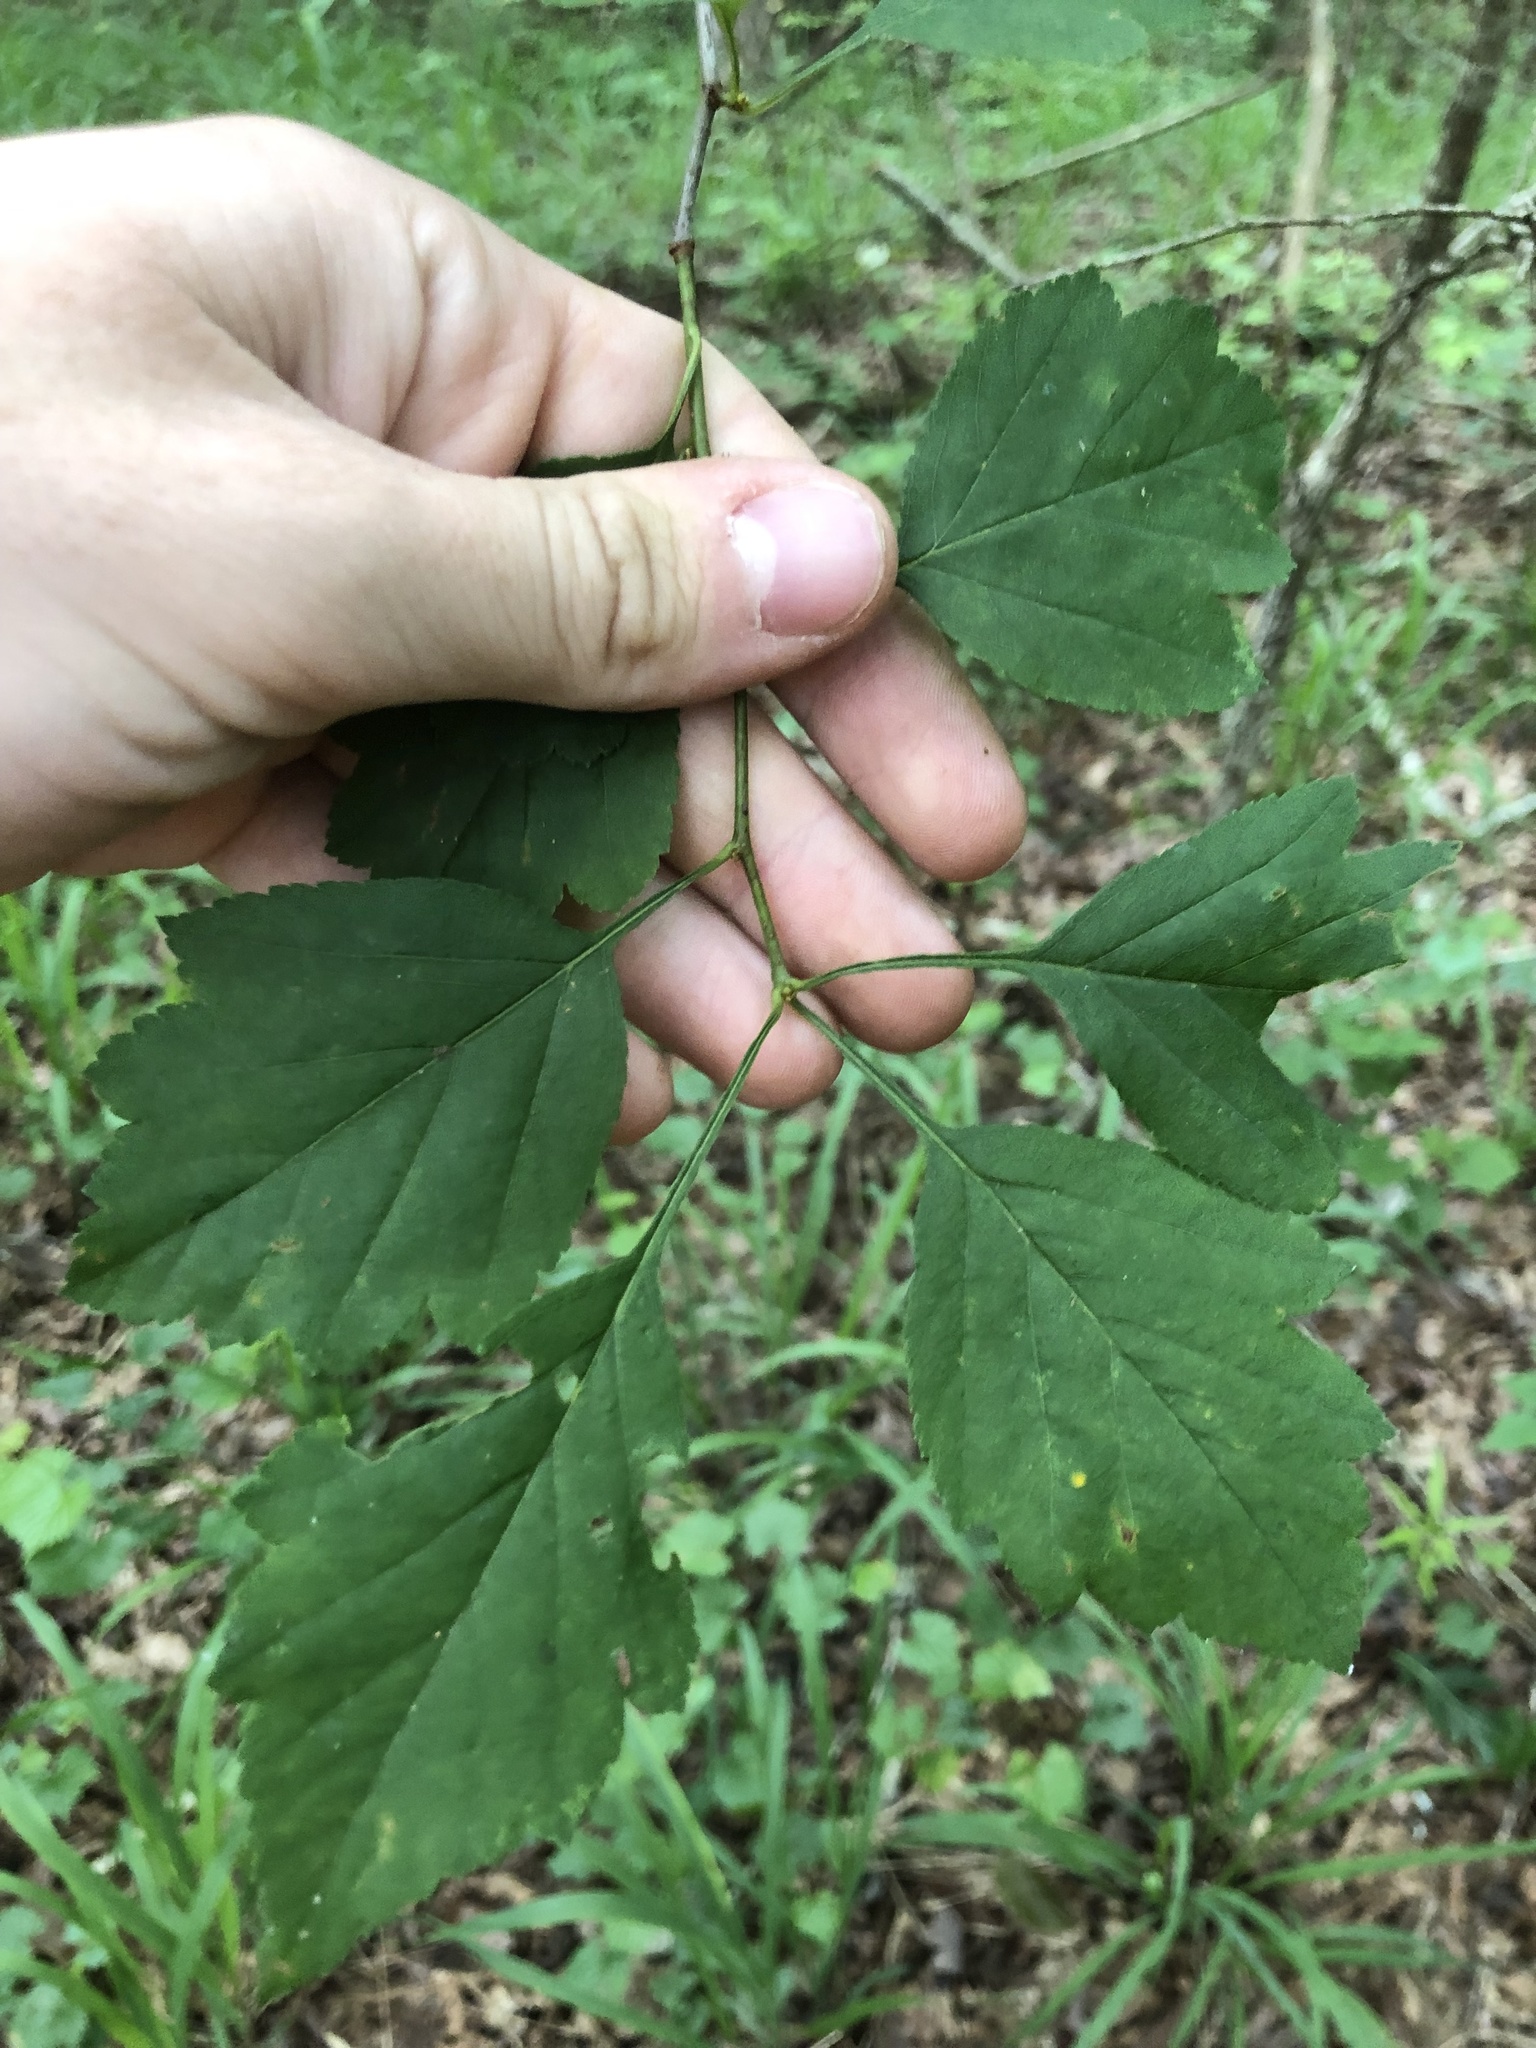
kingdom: Plantae
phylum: Tracheophyta
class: Magnoliopsida
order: Rosales
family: Rosaceae
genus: Crataegus
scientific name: Crataegus pulcherrima
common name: Beautiful hawthorn
